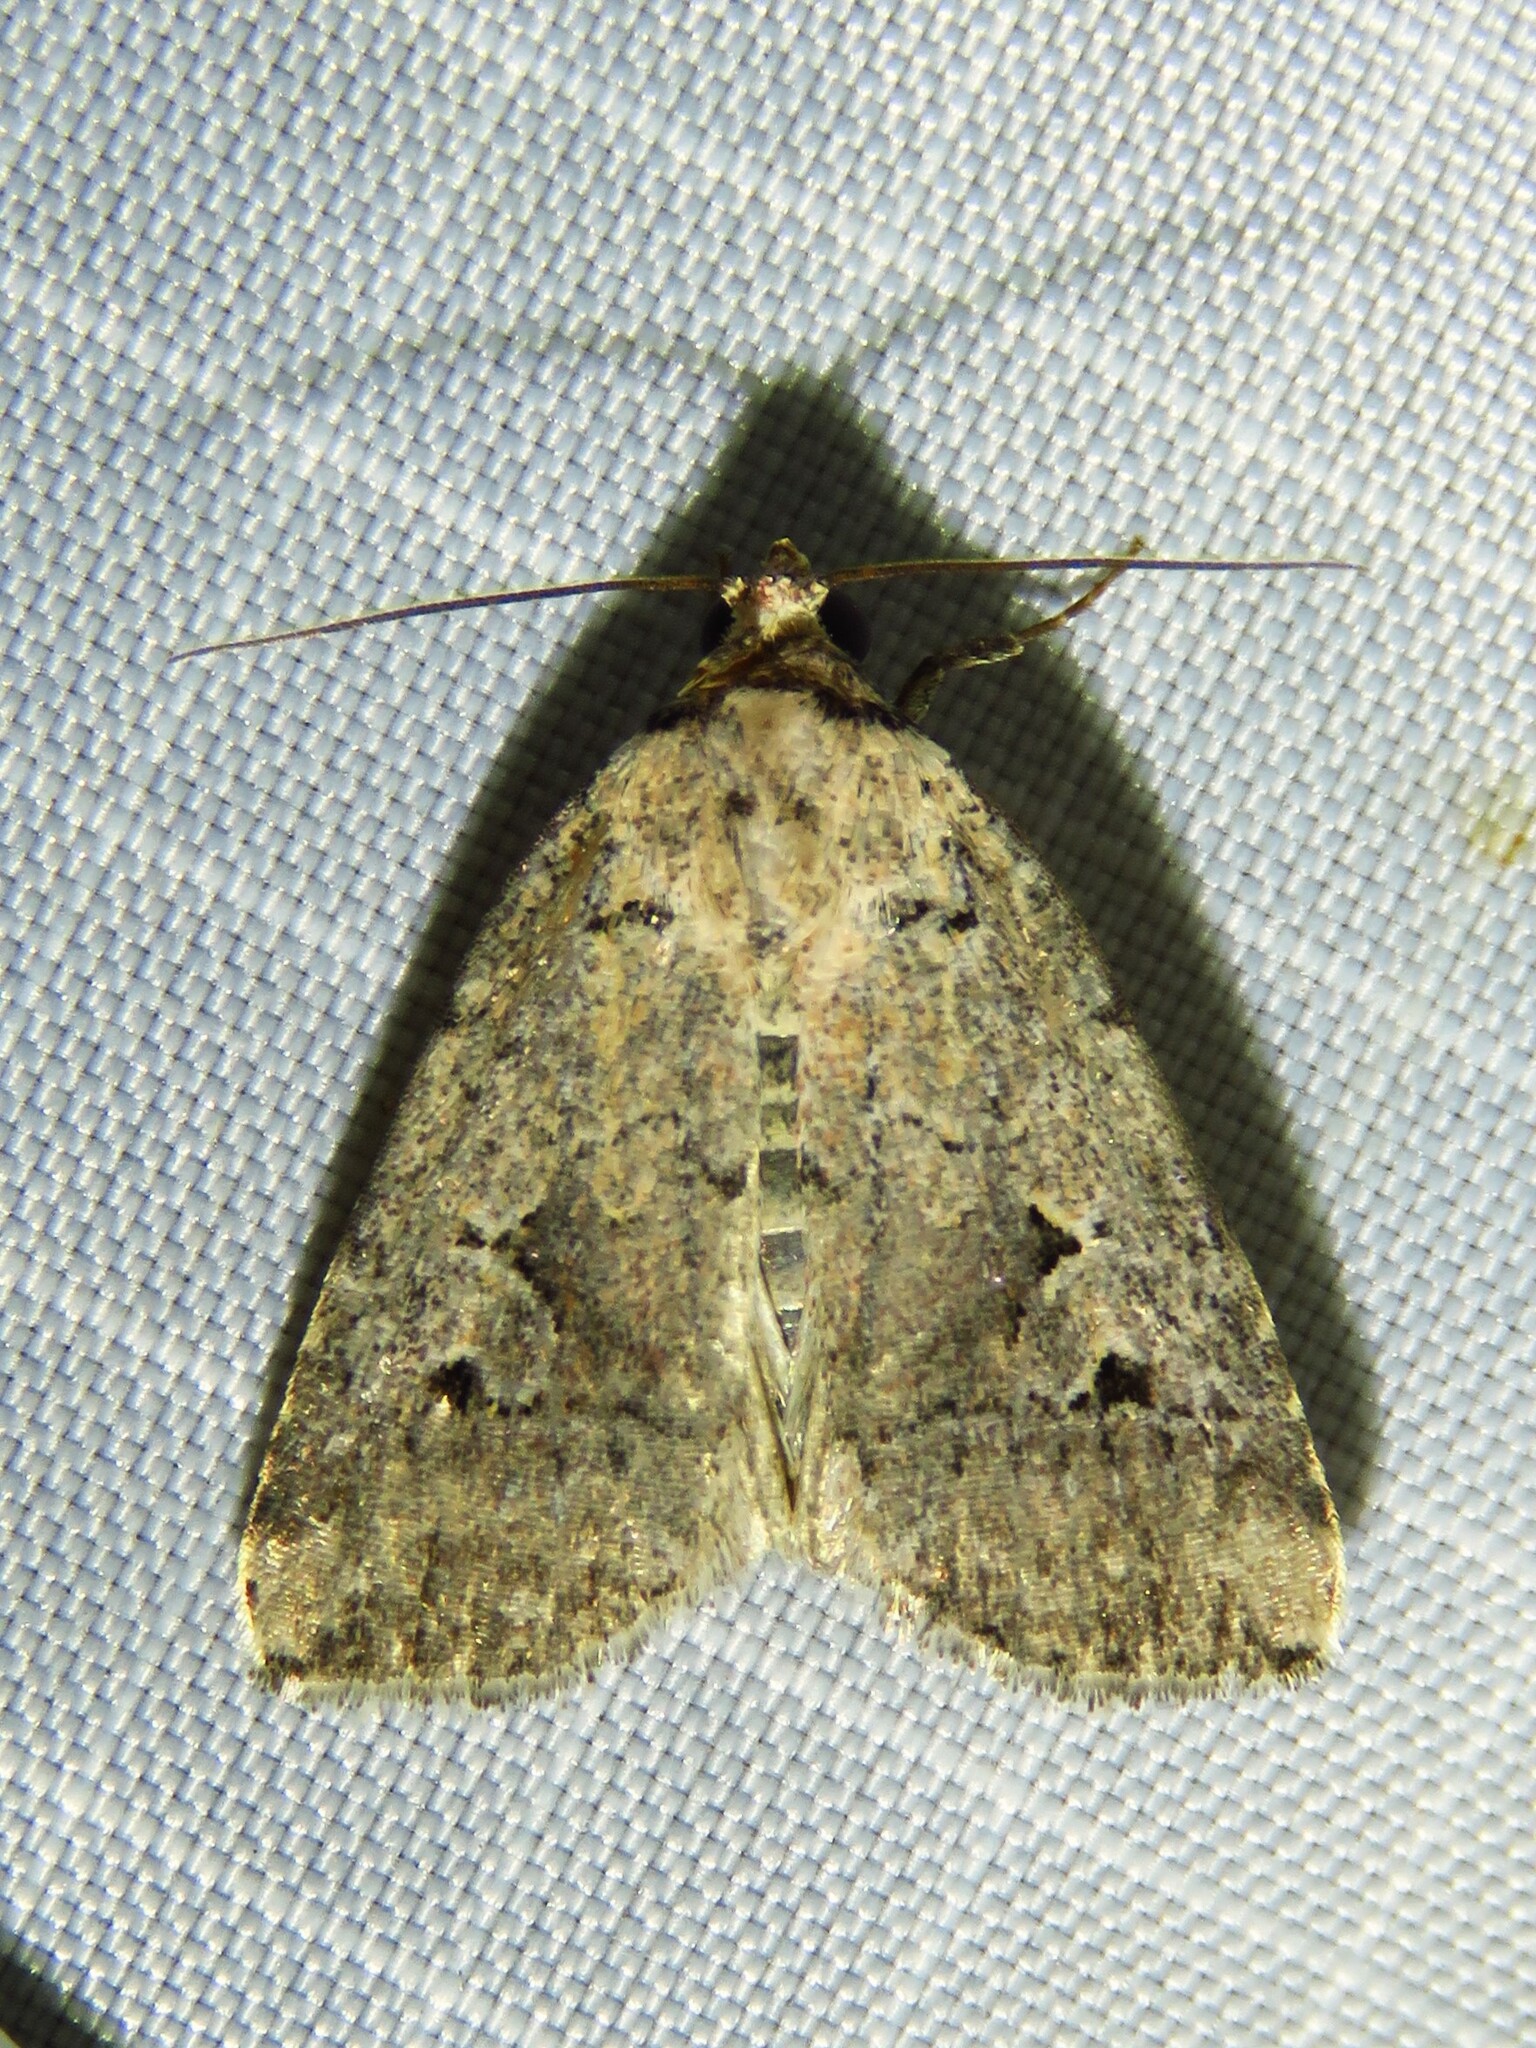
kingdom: Animalia
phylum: Arthropoda
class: Insecta
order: Lepidoptera
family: Noctuidae
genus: Elaphria
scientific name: Elaphria festivoides
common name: Festive midget
